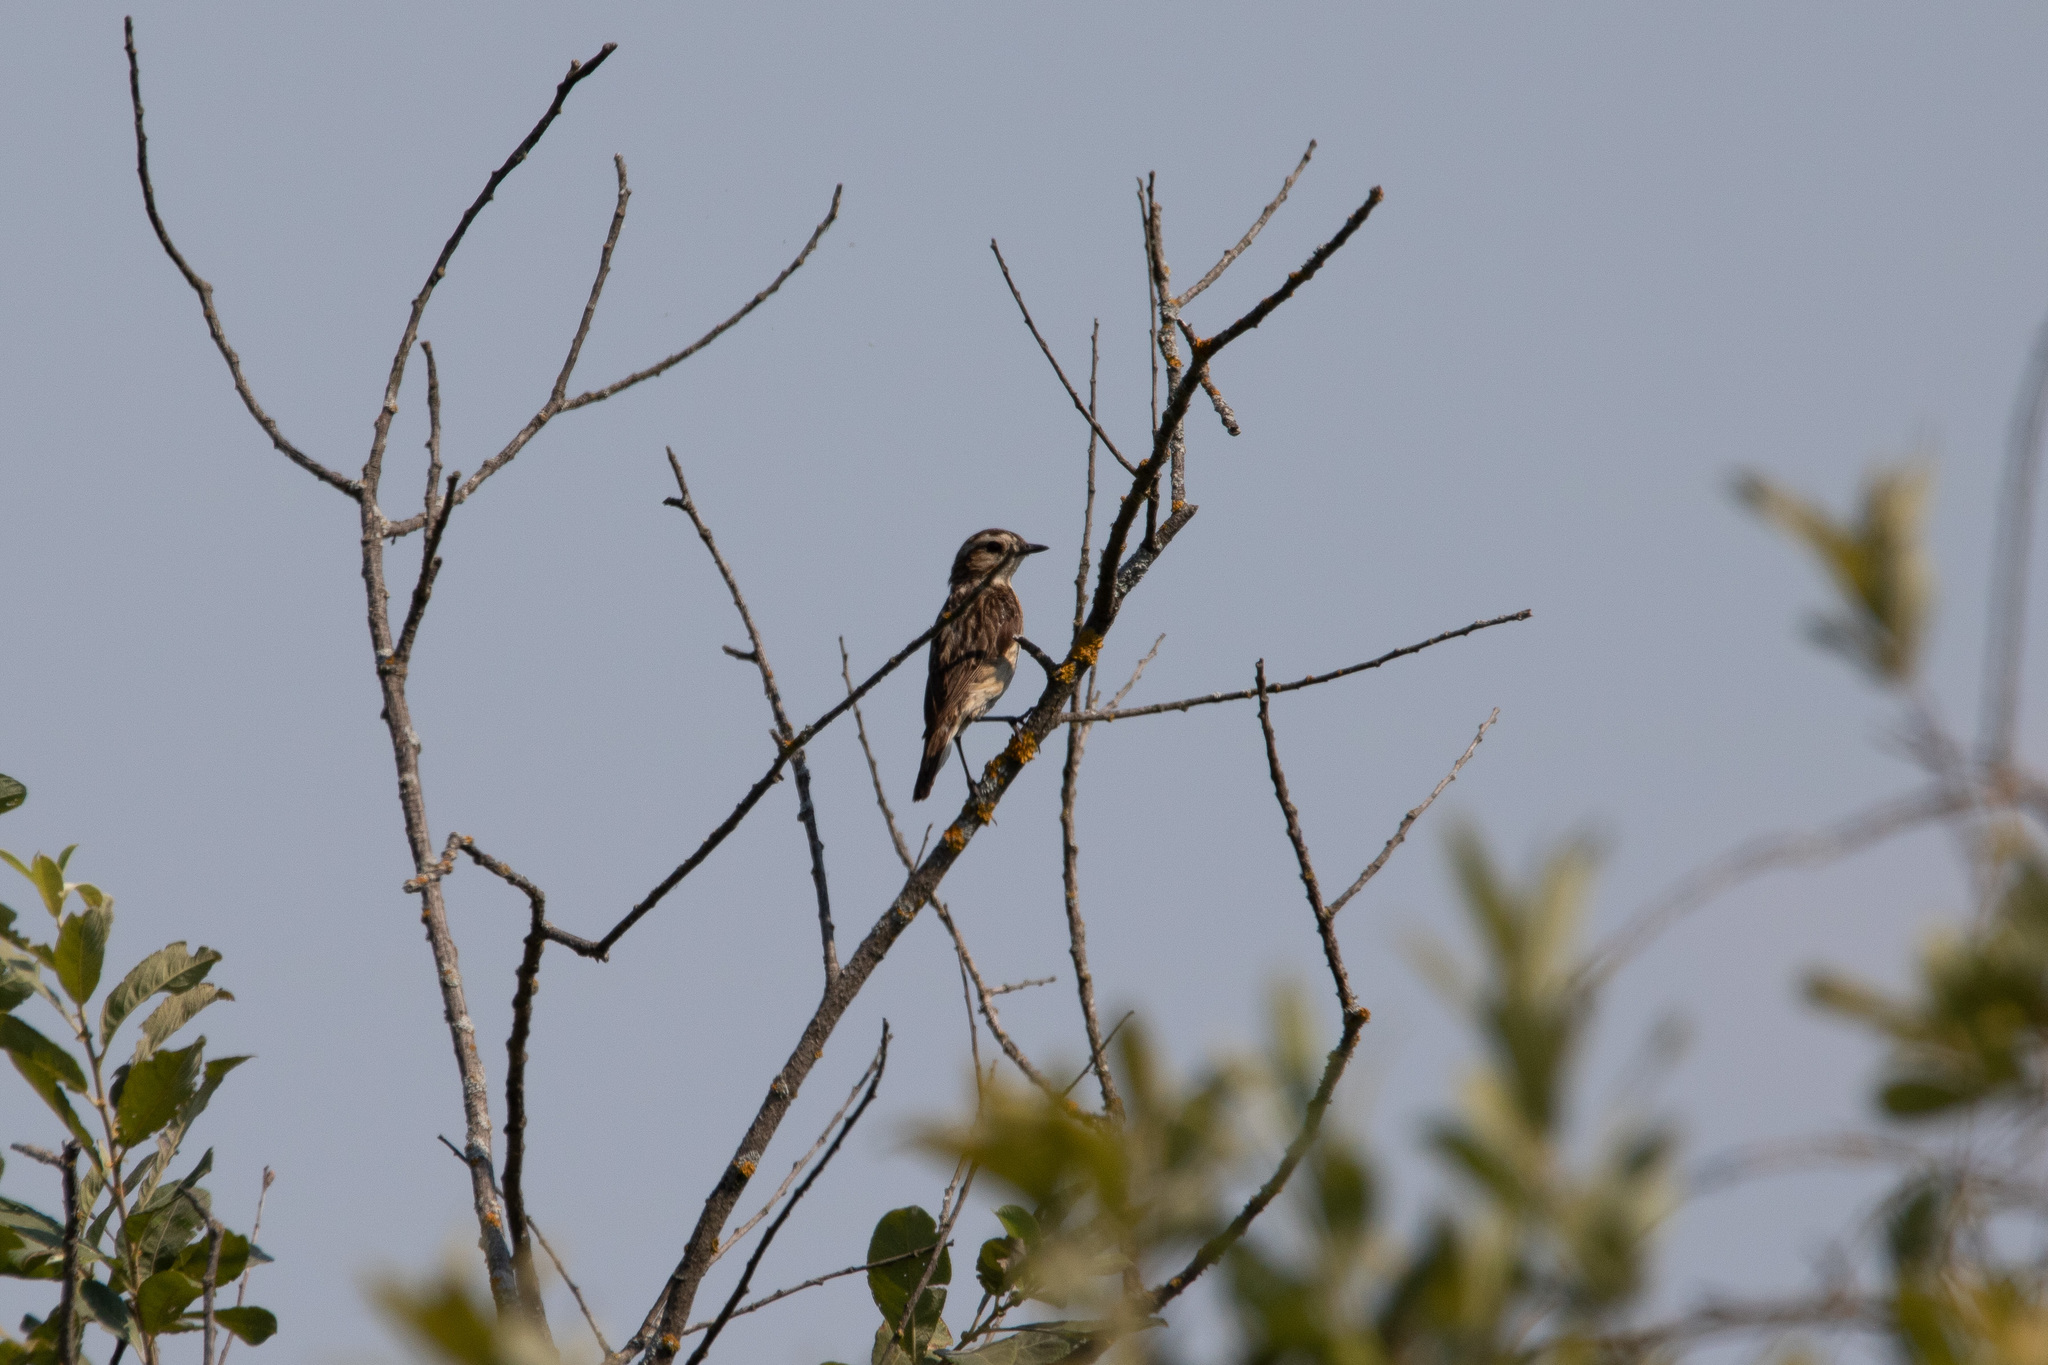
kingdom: Animalia
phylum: Chordata
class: Aves
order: Passeriformes
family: Muscicapidae
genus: Saxicola
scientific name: Saxicola rubetra
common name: Whinchat
